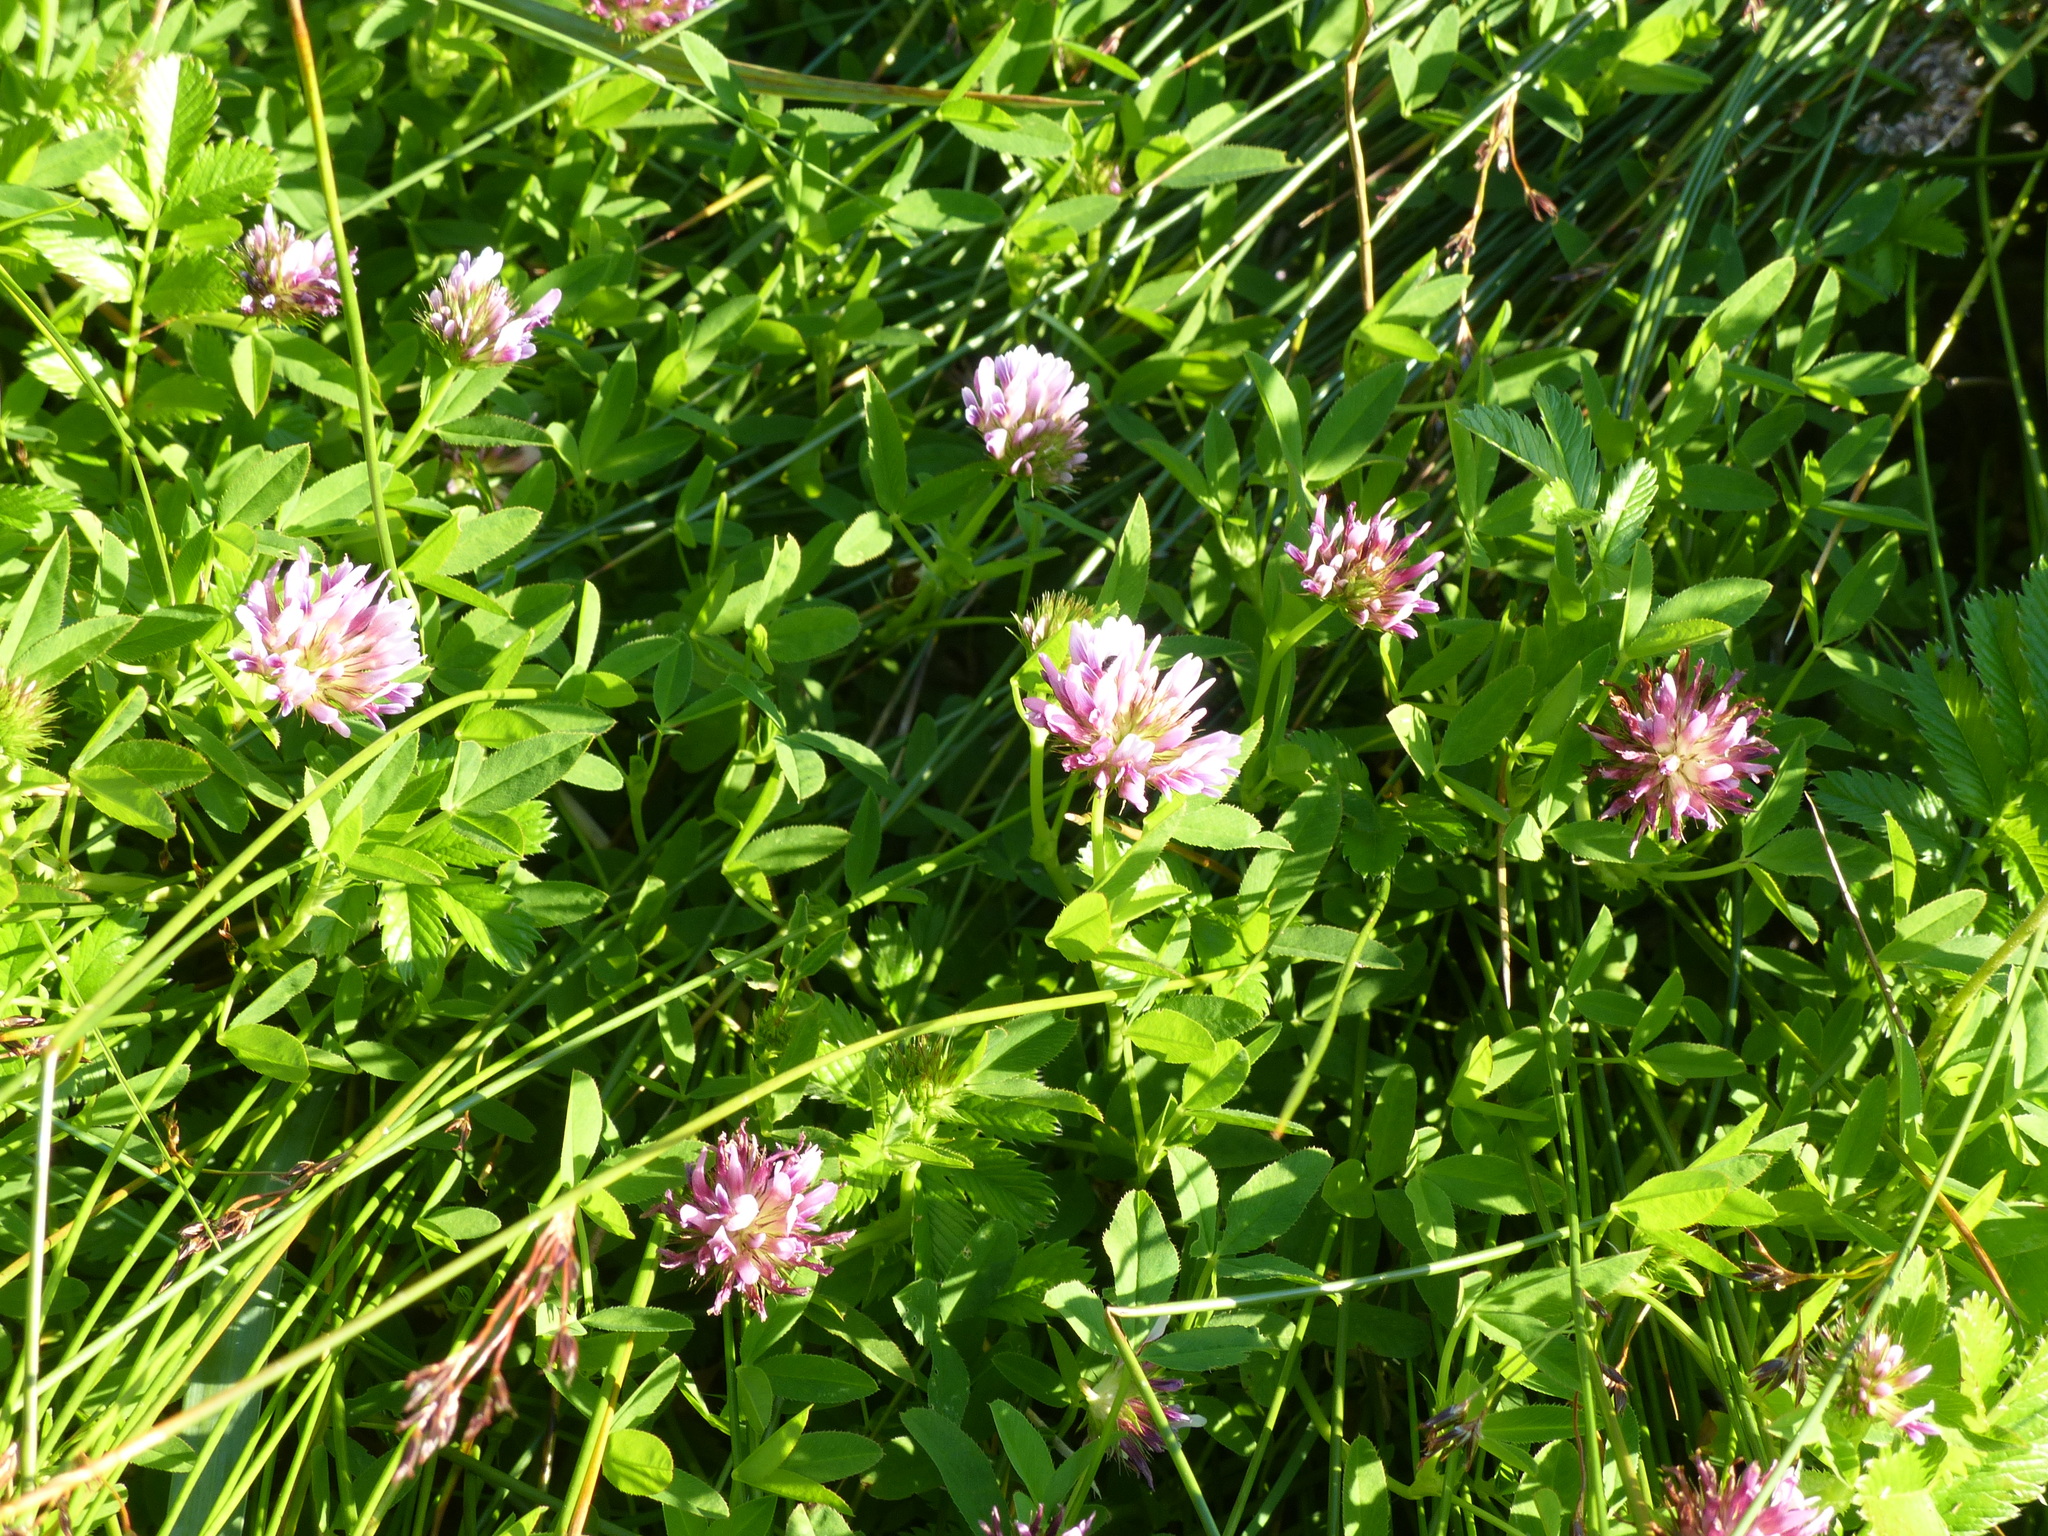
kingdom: Plantae
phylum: Tracheophyta
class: Magnoliopsida
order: Fabales
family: Fabaceae
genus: Trifolium
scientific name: Trifolium wormskioldii
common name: Springbank clover
